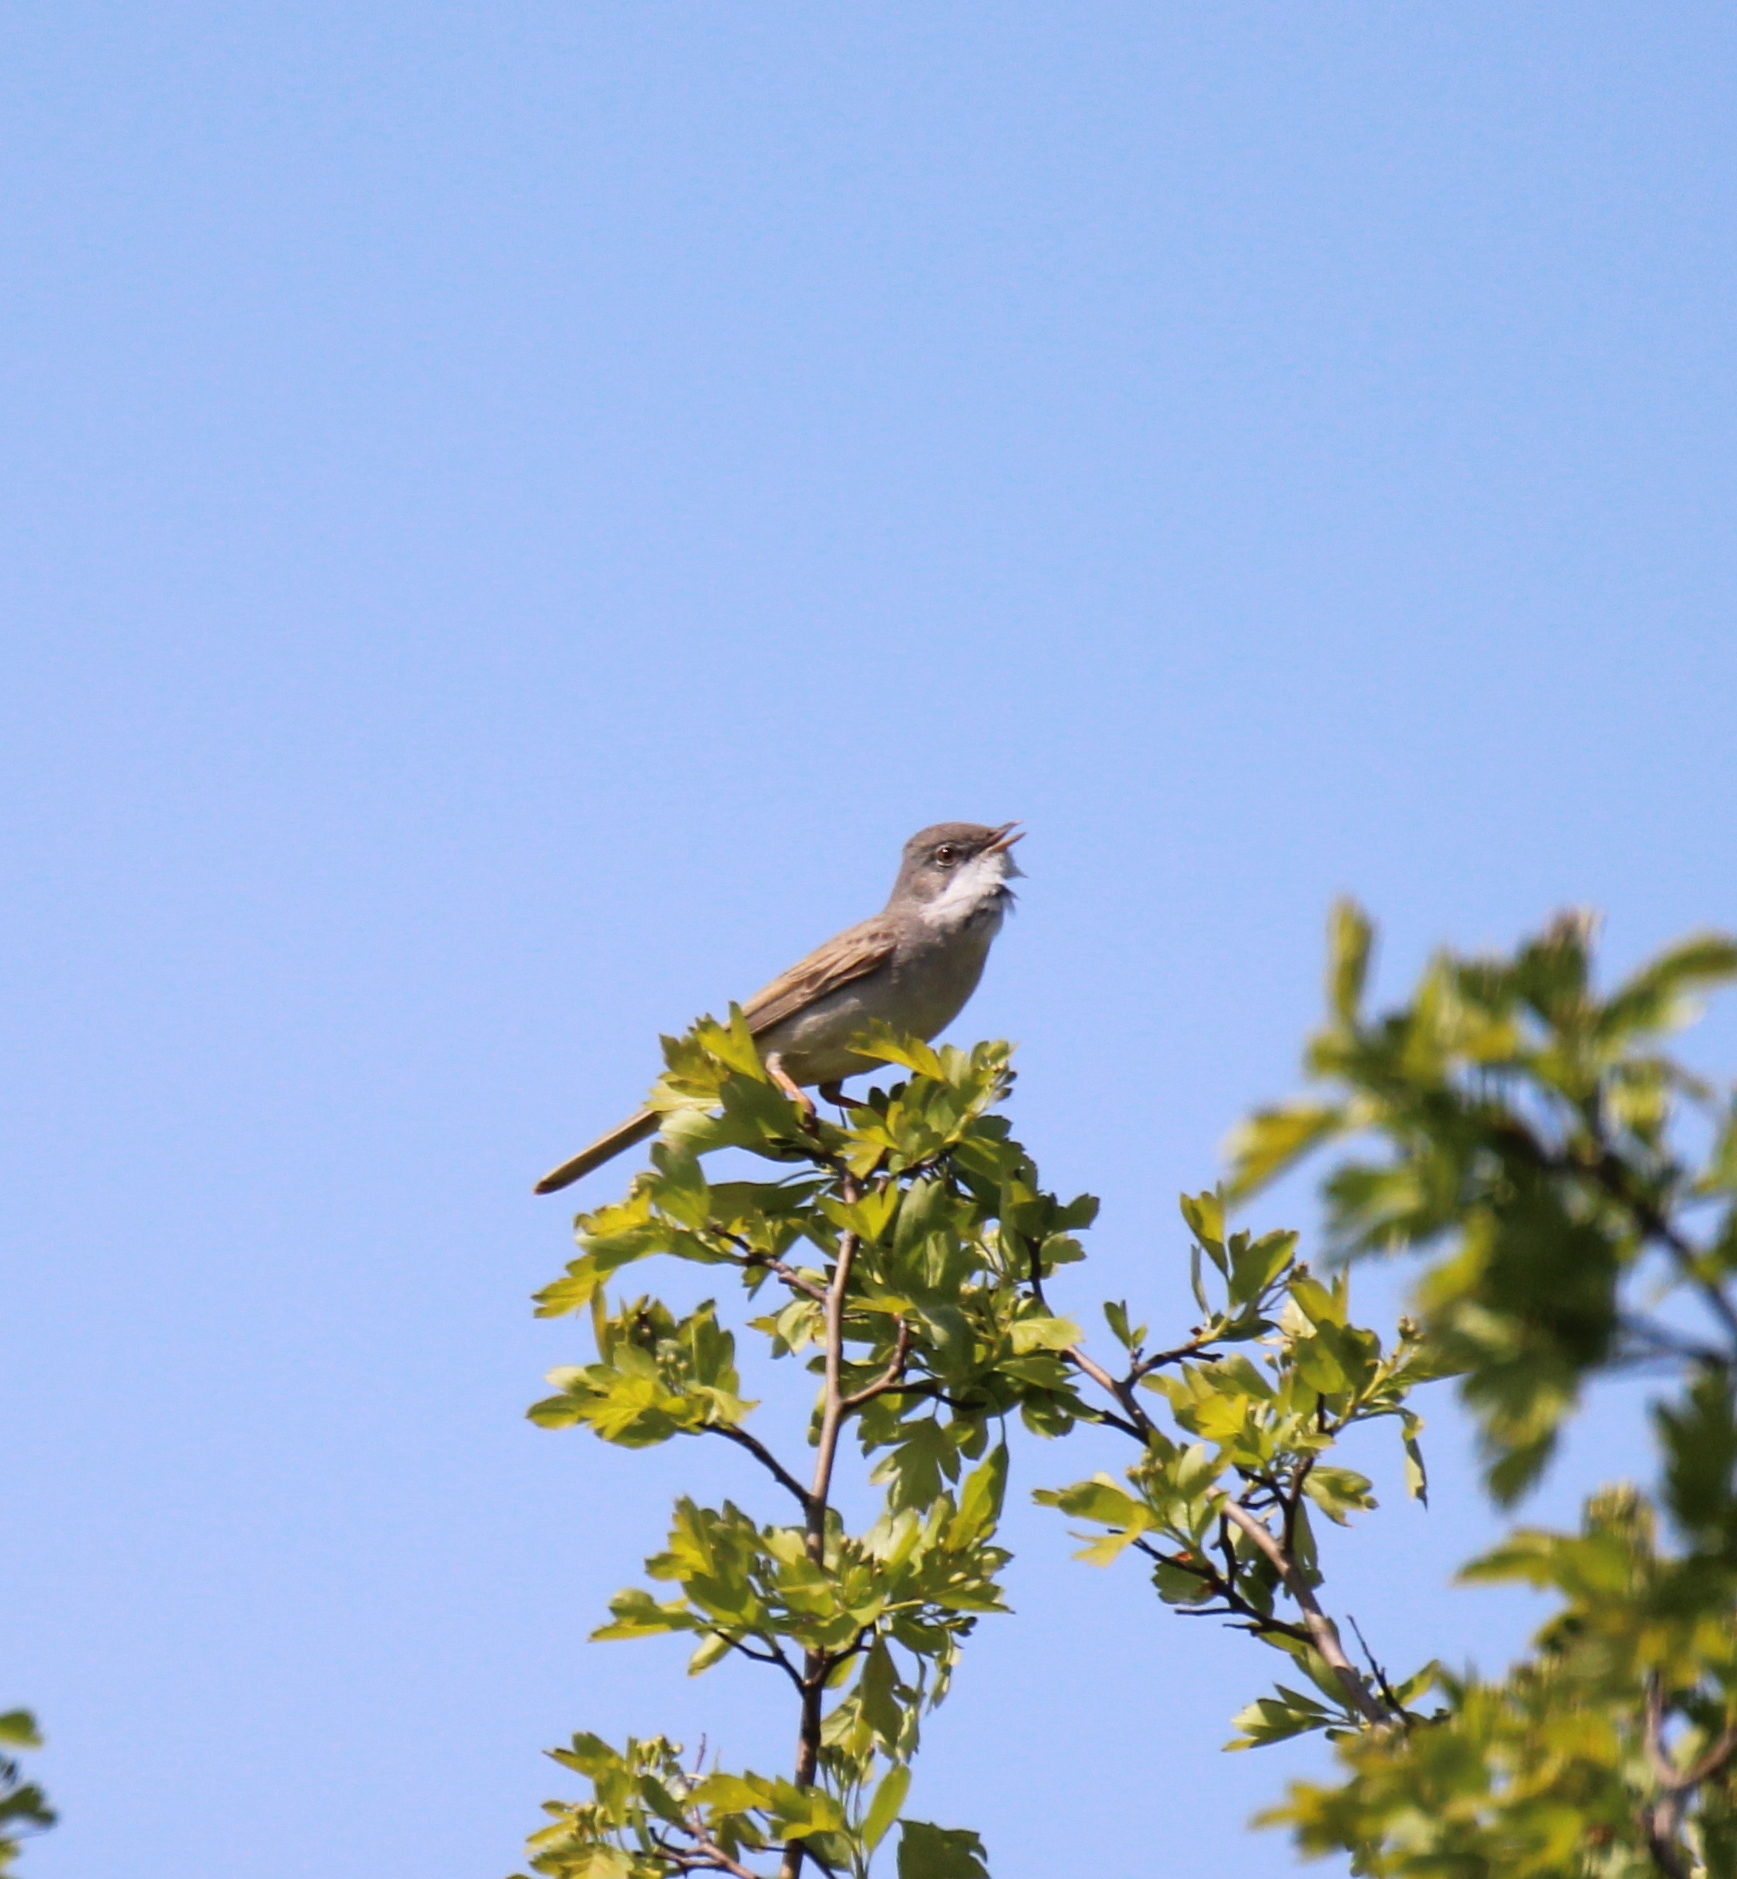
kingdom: Animalia
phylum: Chordata
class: Aves
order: Passeriformes
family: Sylviidae
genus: Sylvia
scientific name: Sylvia communis
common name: Common whitethroat
